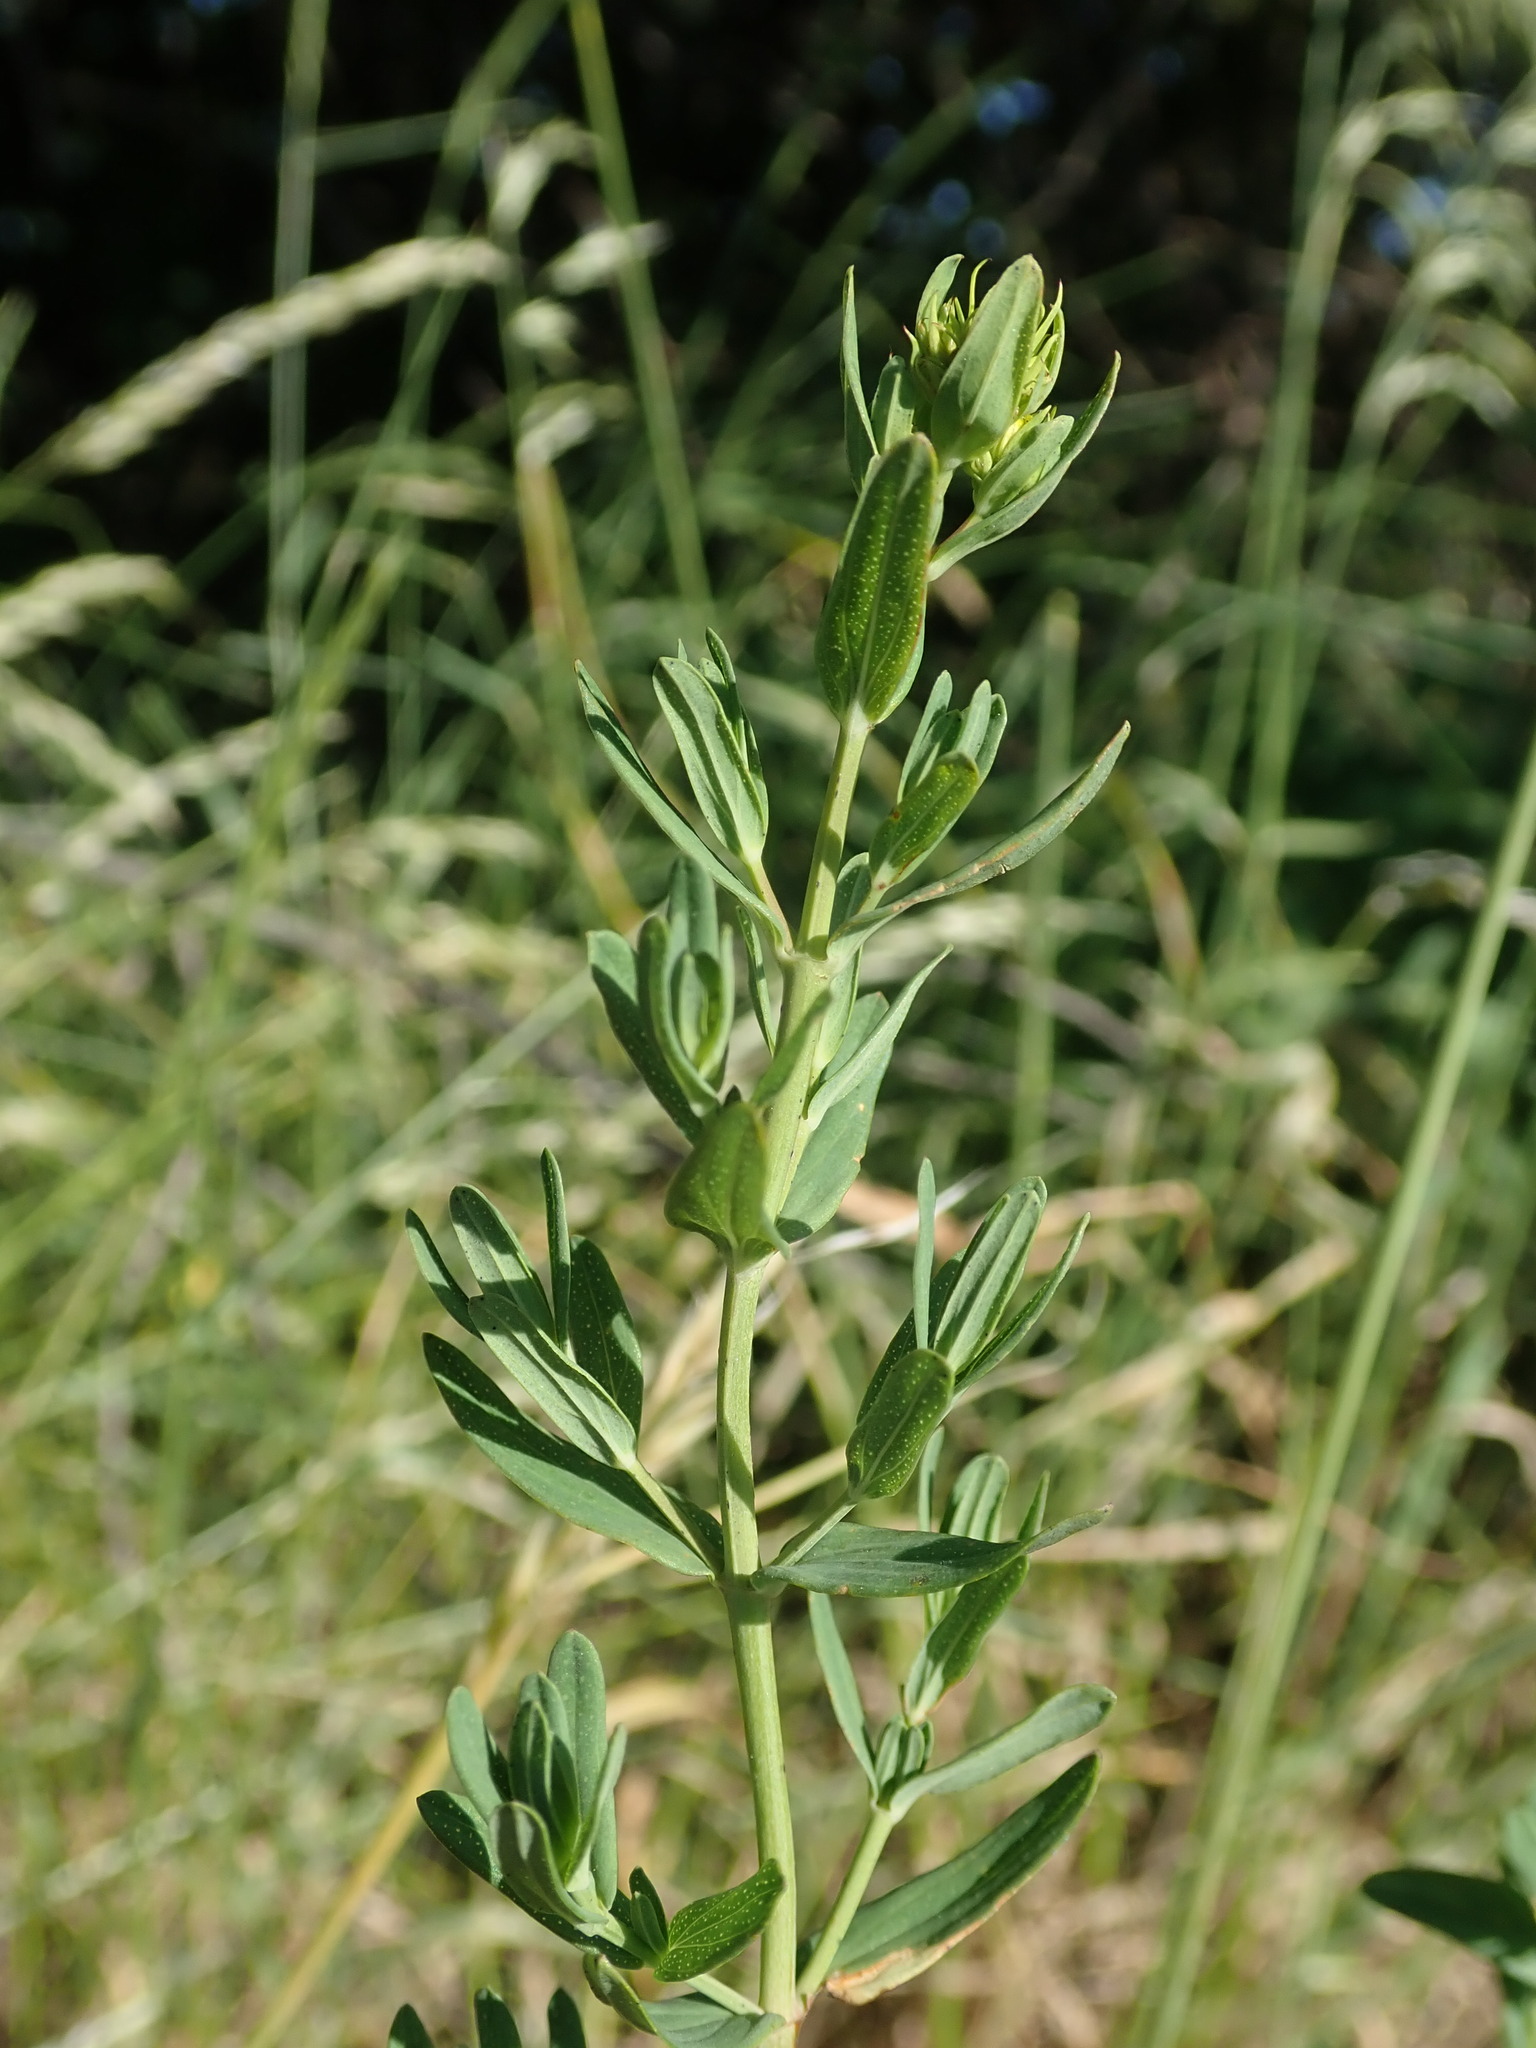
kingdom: Plantae
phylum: Tracheophyta
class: Magnoliopsida
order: Malpighiales
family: Hypericaceae
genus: Hypericum
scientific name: Hypericum perforatum
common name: Common st. johnswort
